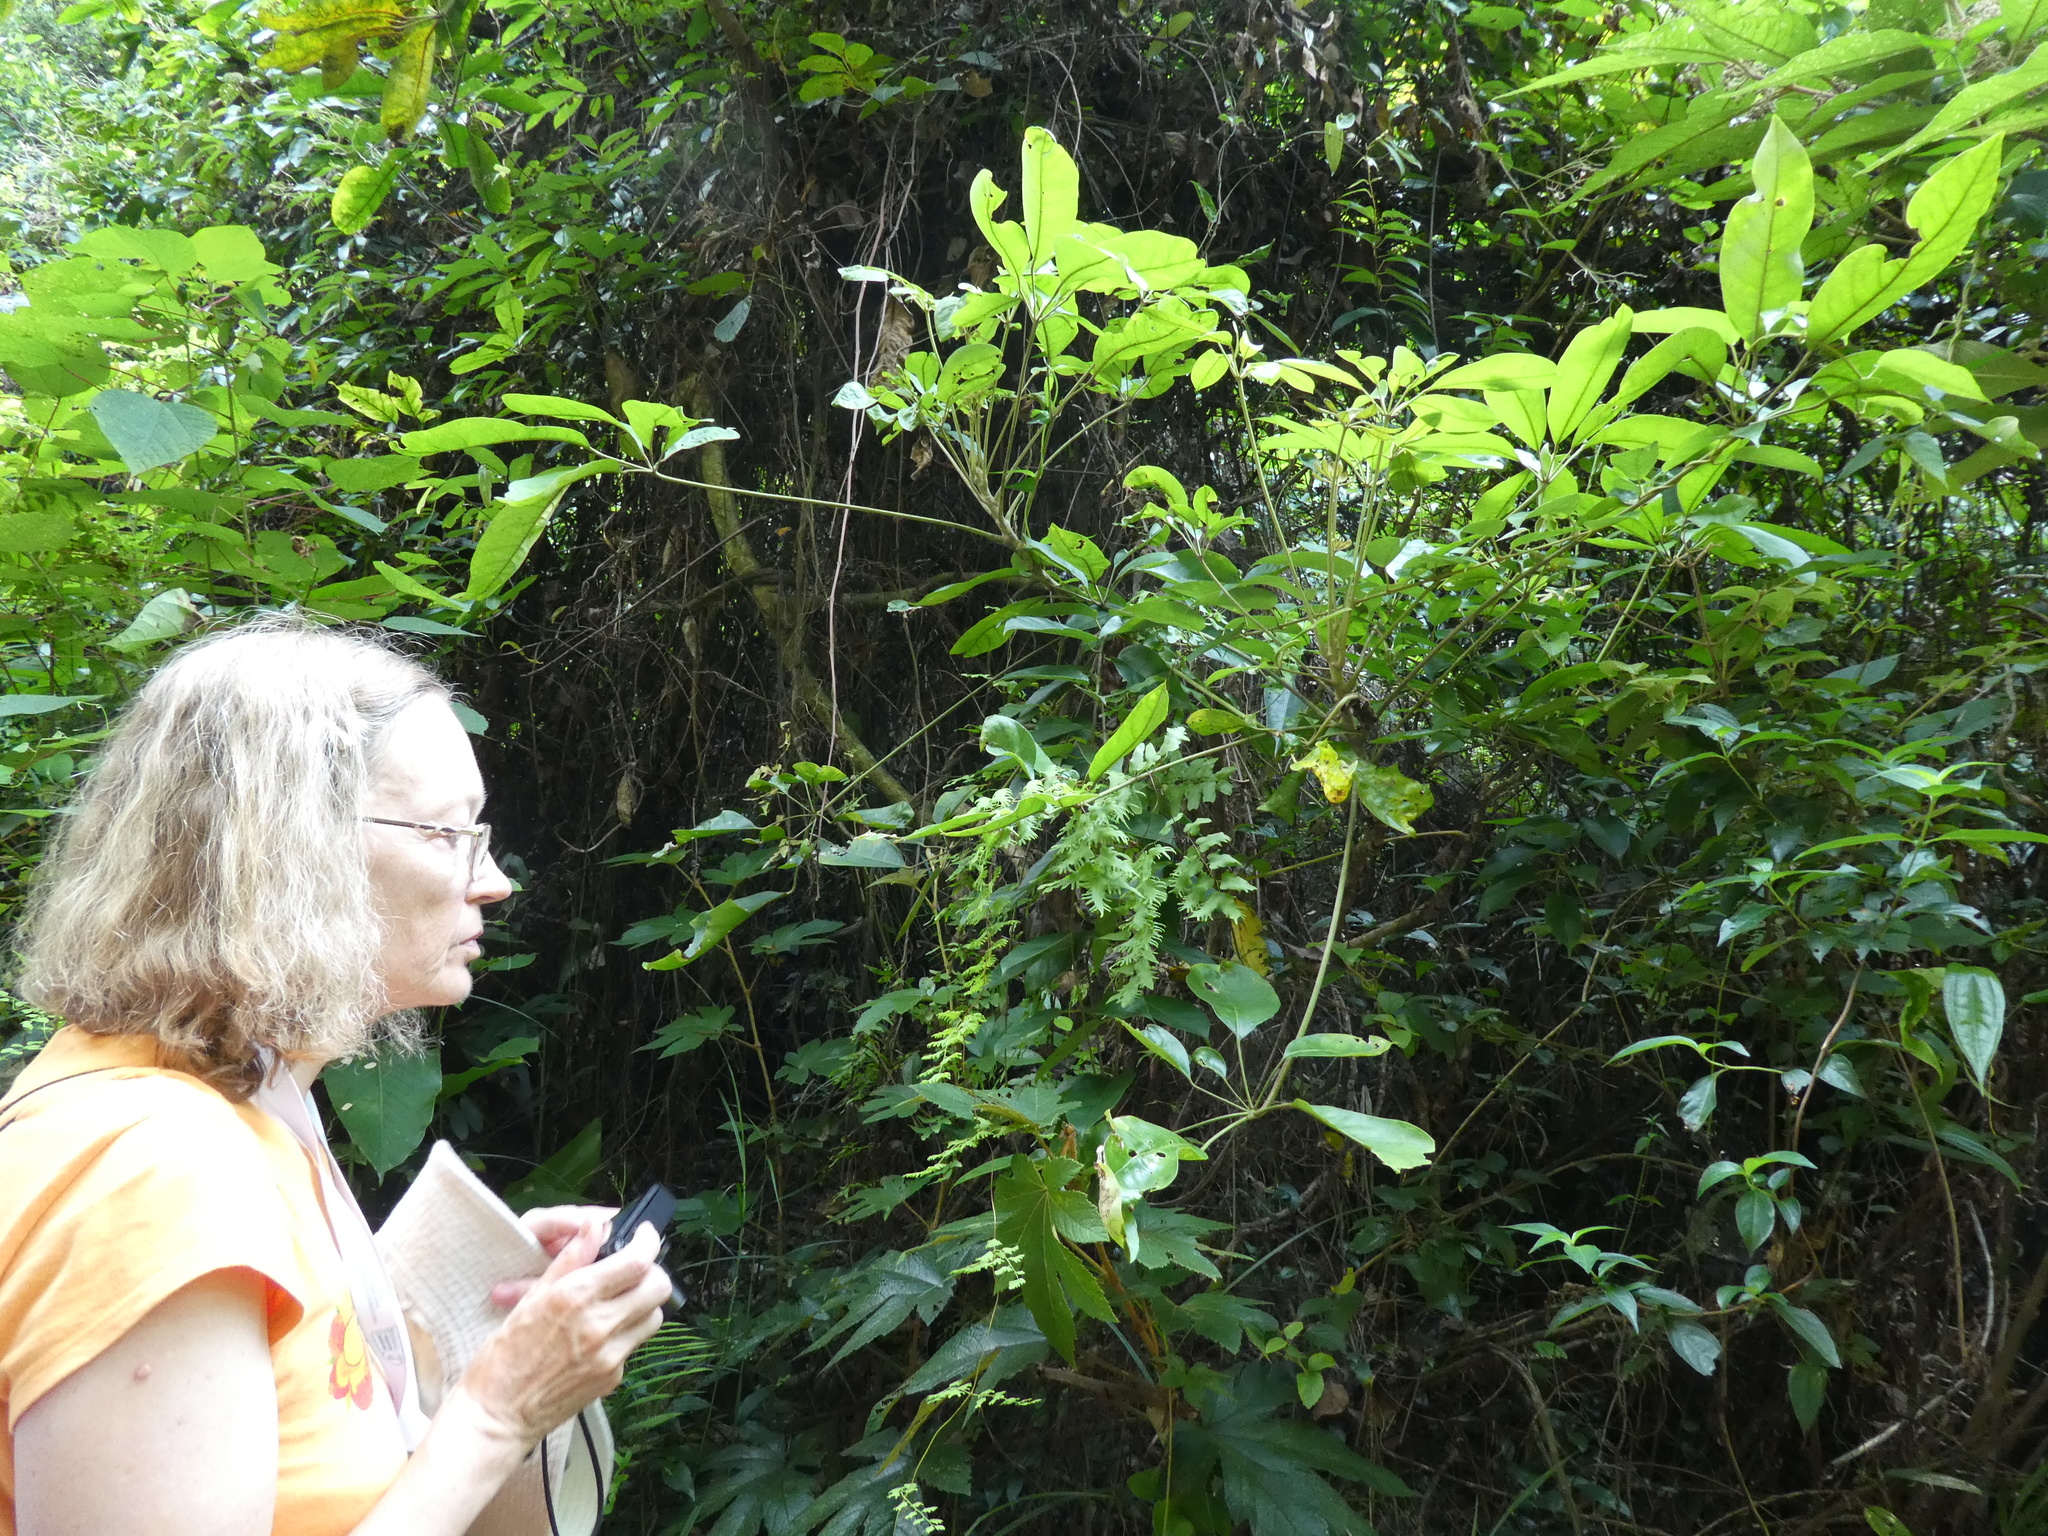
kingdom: Plantae
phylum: Tracheophyta
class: Polypodiopsida
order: Schizaeales
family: Lygodiaceae
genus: Lygodium
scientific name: Lygodium microphyllum
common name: Small-leaf climbing fern
